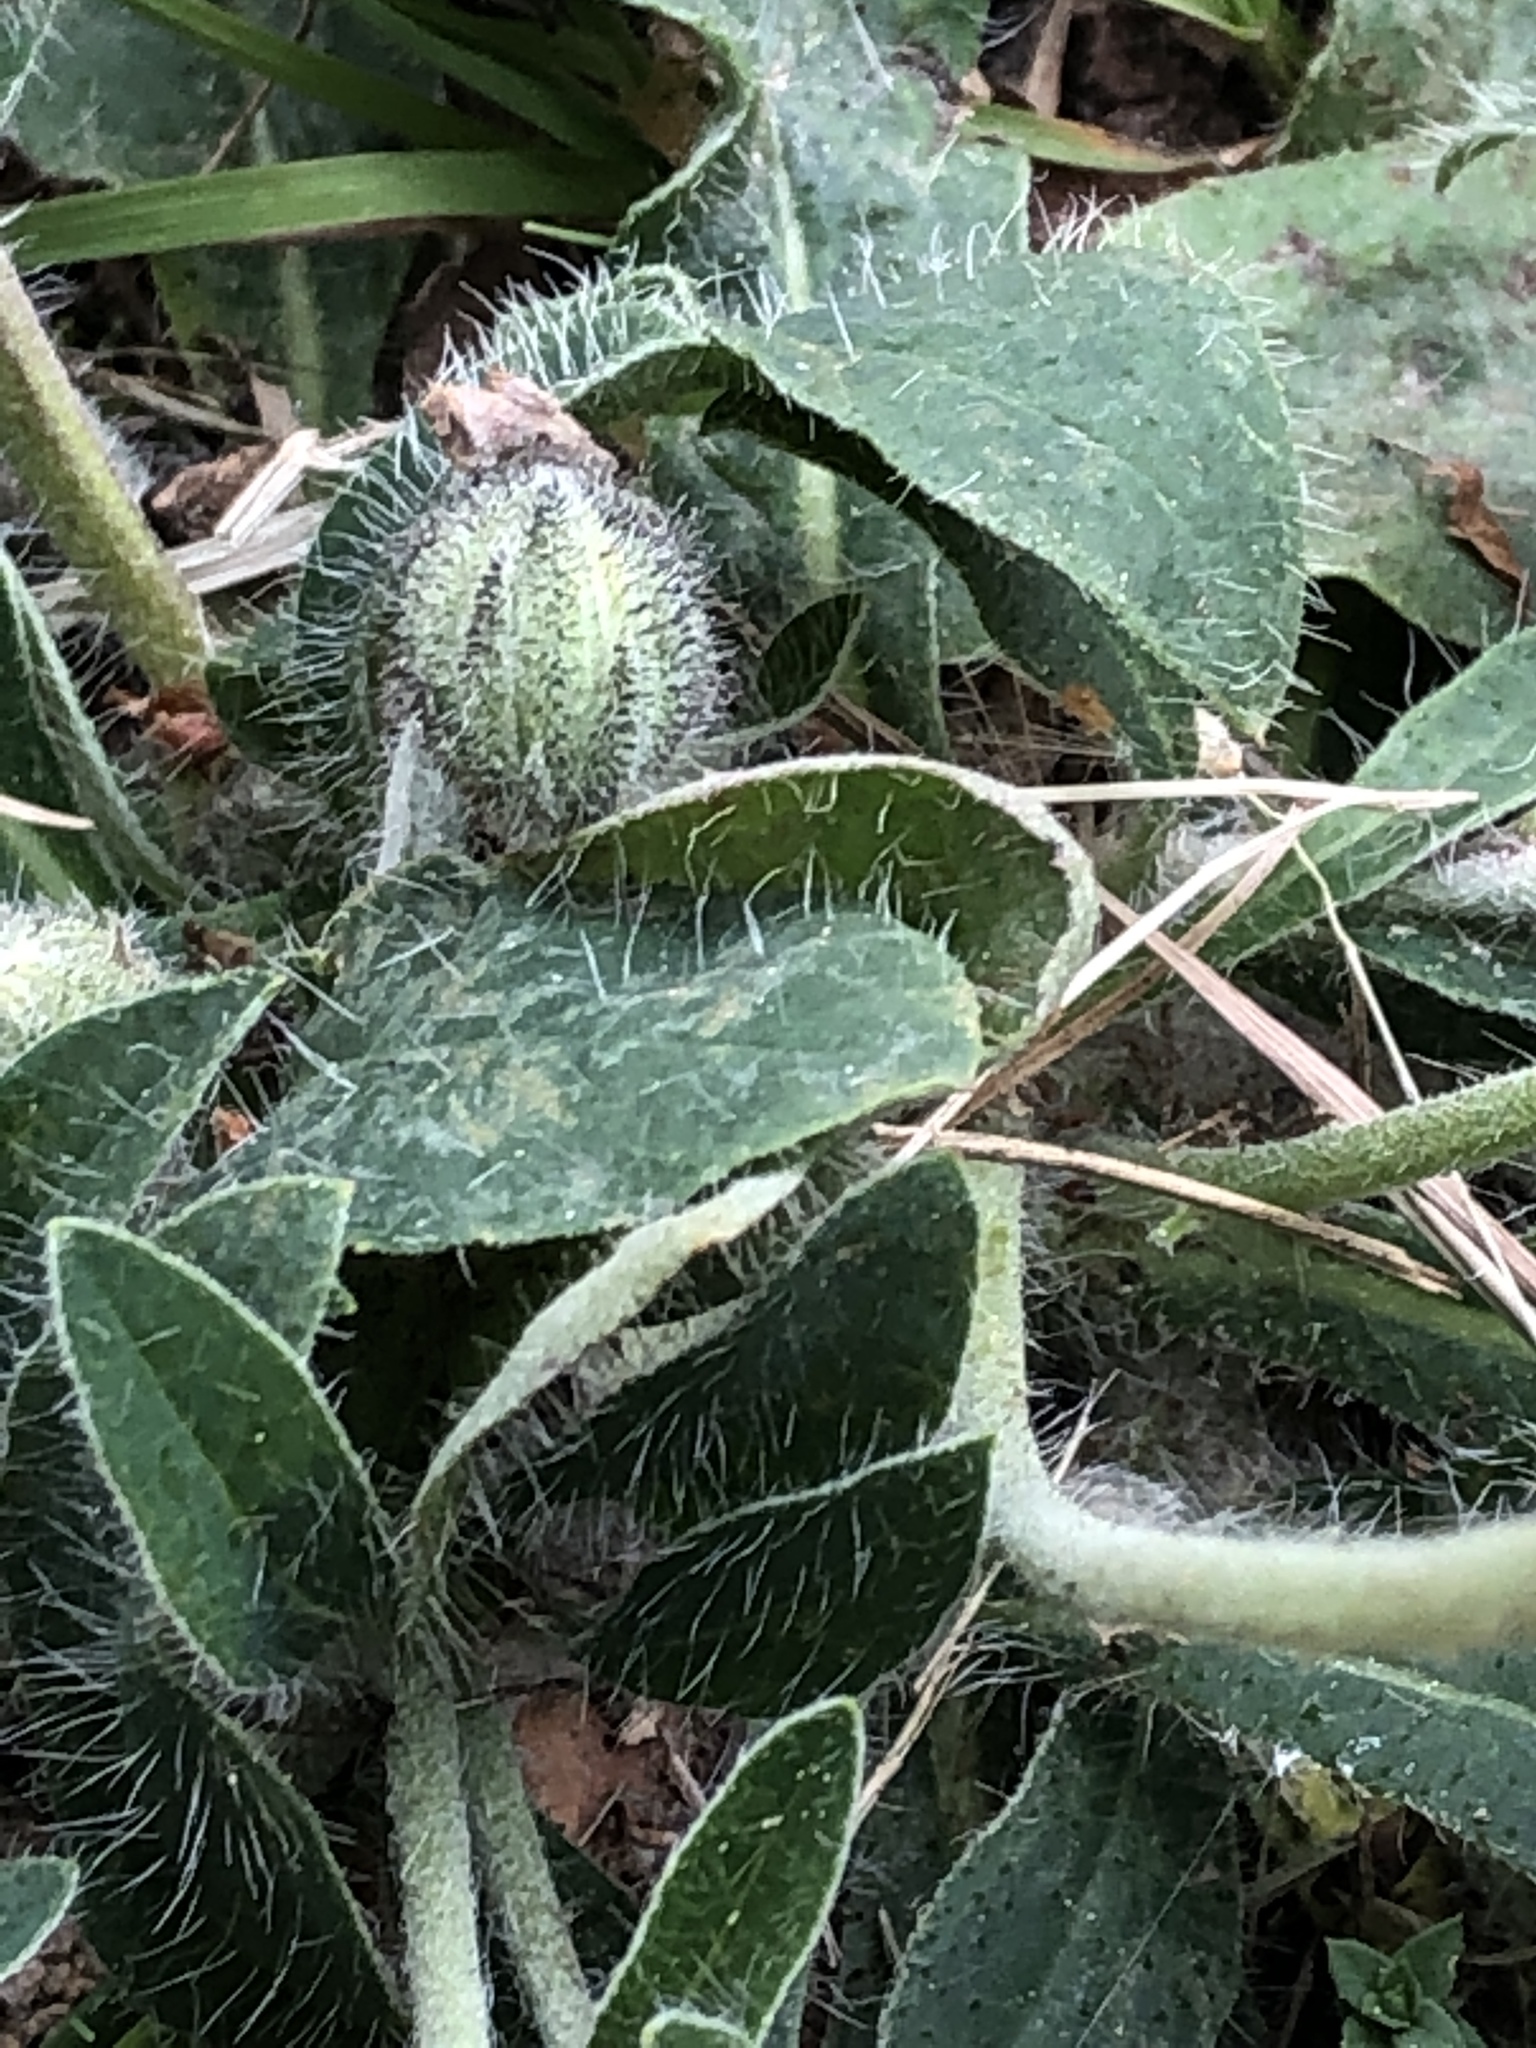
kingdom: Plantae
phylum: Tracheophyta
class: Magnoliopsida
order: Asterales
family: Asteraceae
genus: Pilosella
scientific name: Pilosella officinarum
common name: Mouse-ear hawkweed
